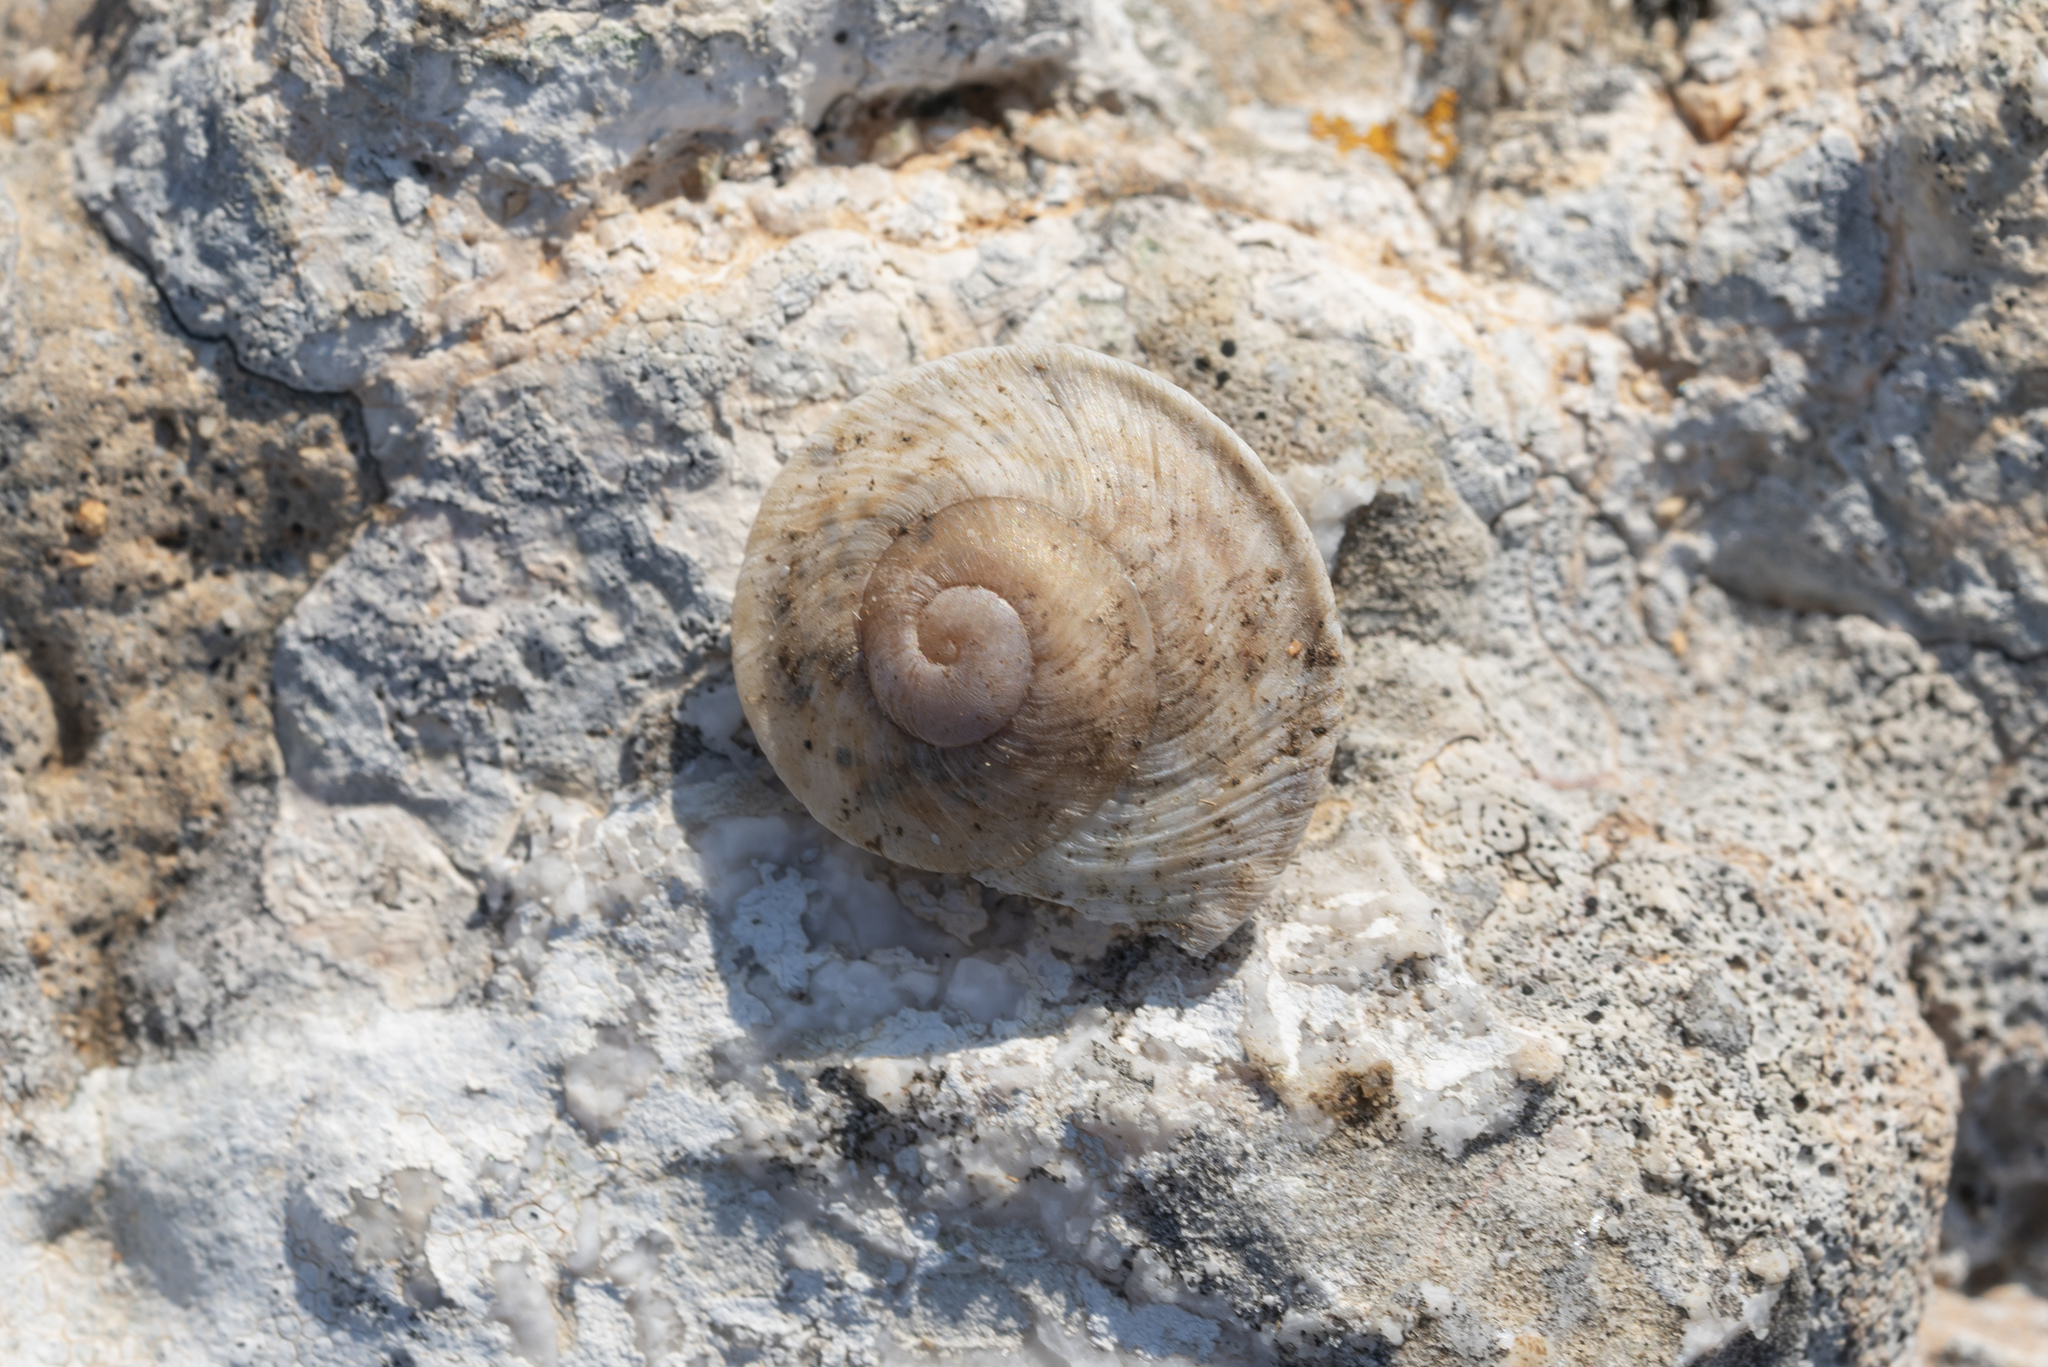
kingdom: Animalia
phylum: Mollusca
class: Gastropoda
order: Stylommatophora
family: Helicidae
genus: Levantina
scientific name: Levantina spiriplana
